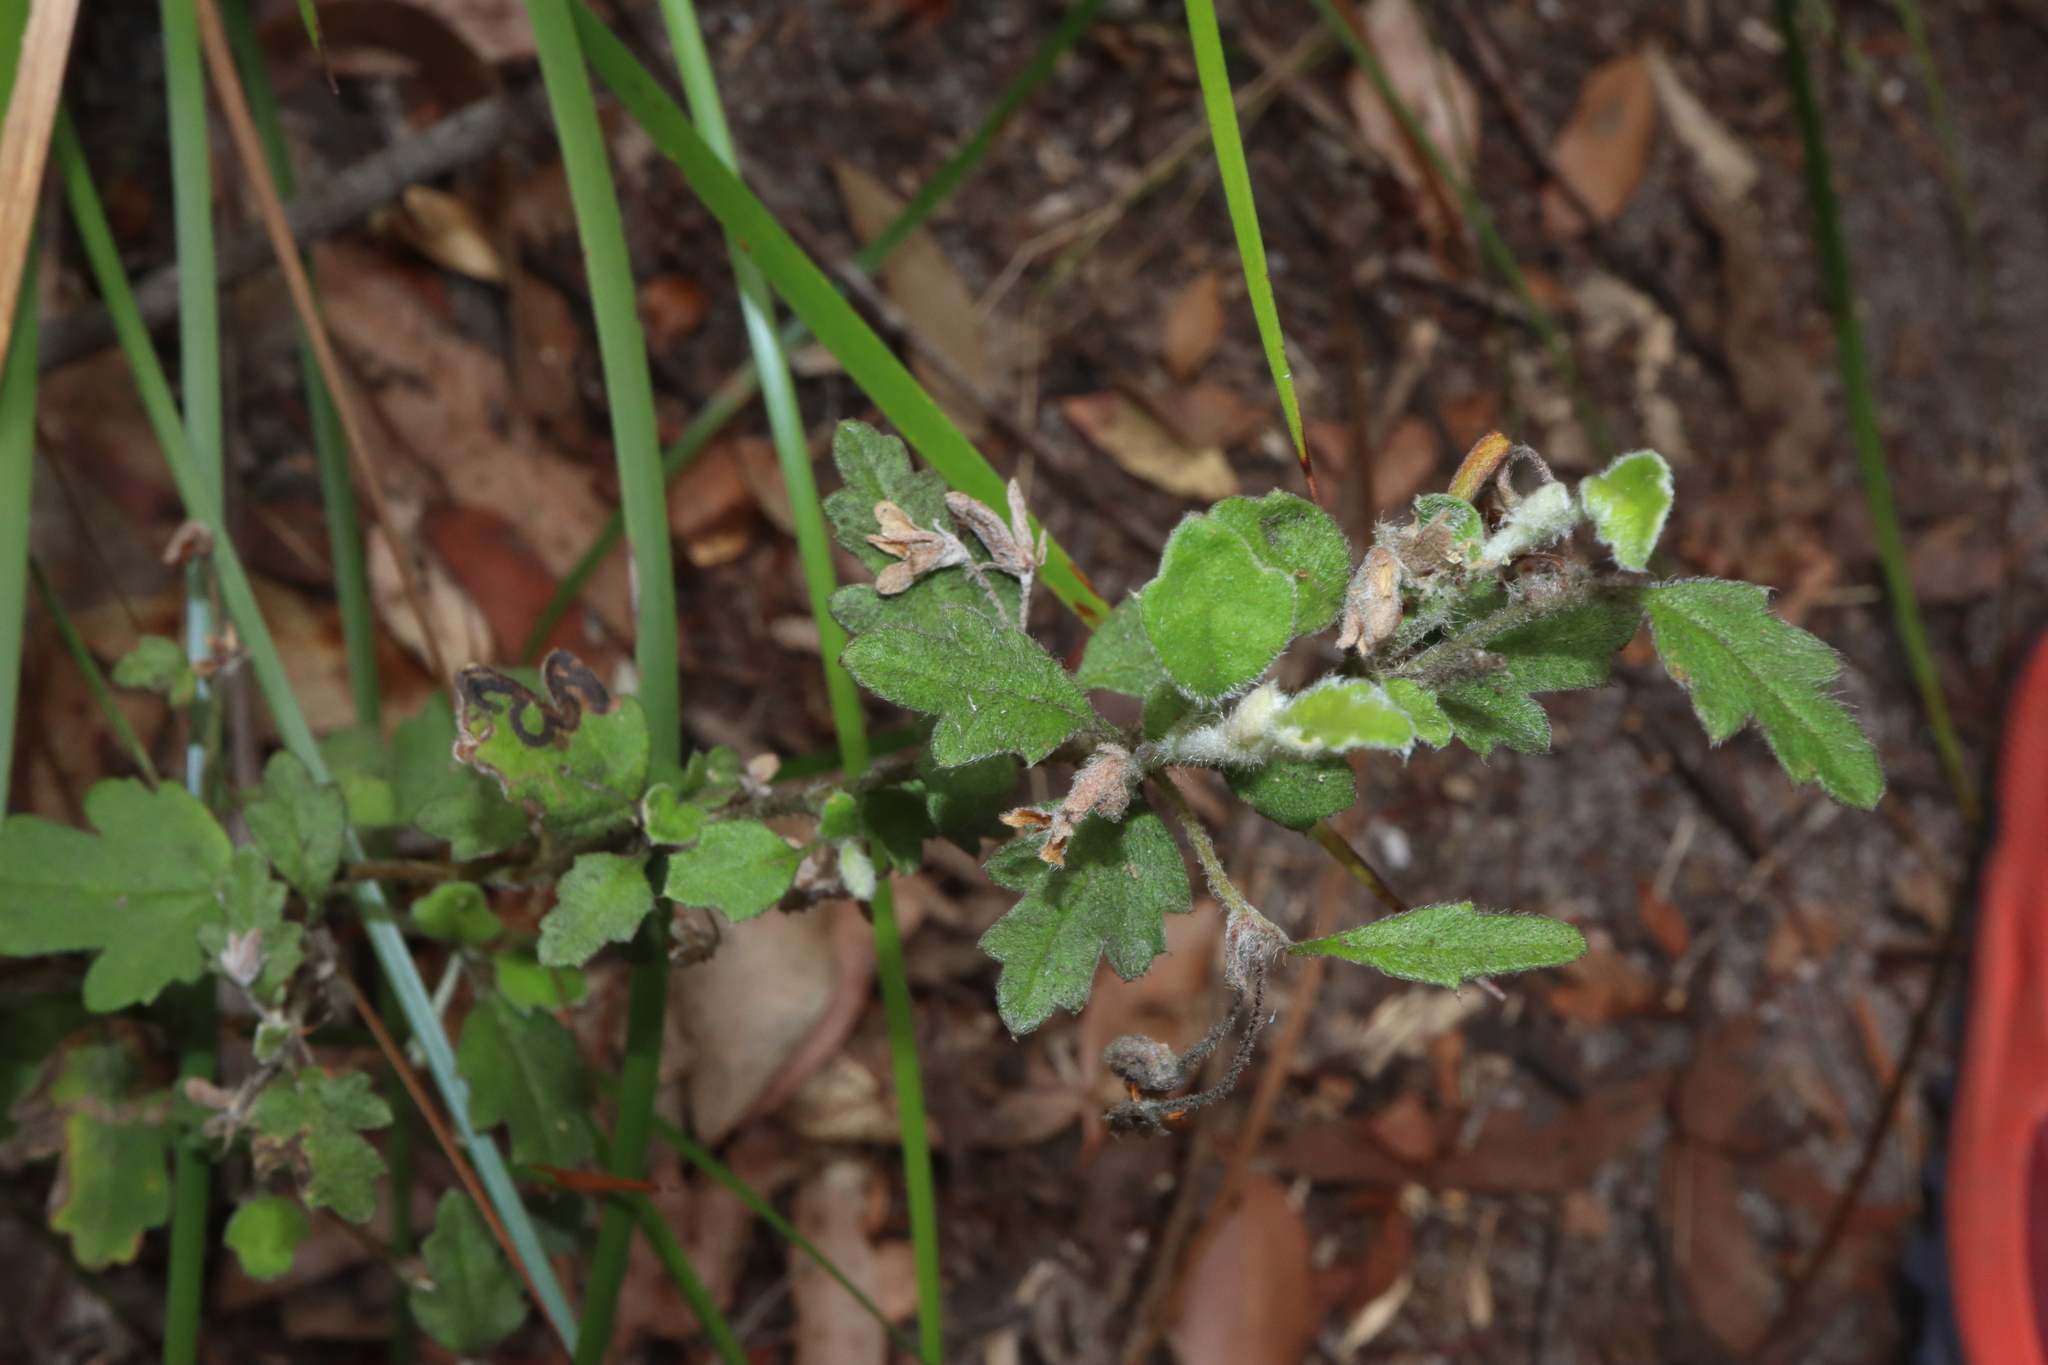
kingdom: Plantae
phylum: Tracheophyta
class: Magnoliopsida
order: Apiales
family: Apiaceae
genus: Xanthosia
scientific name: Xanthosia pilosa
